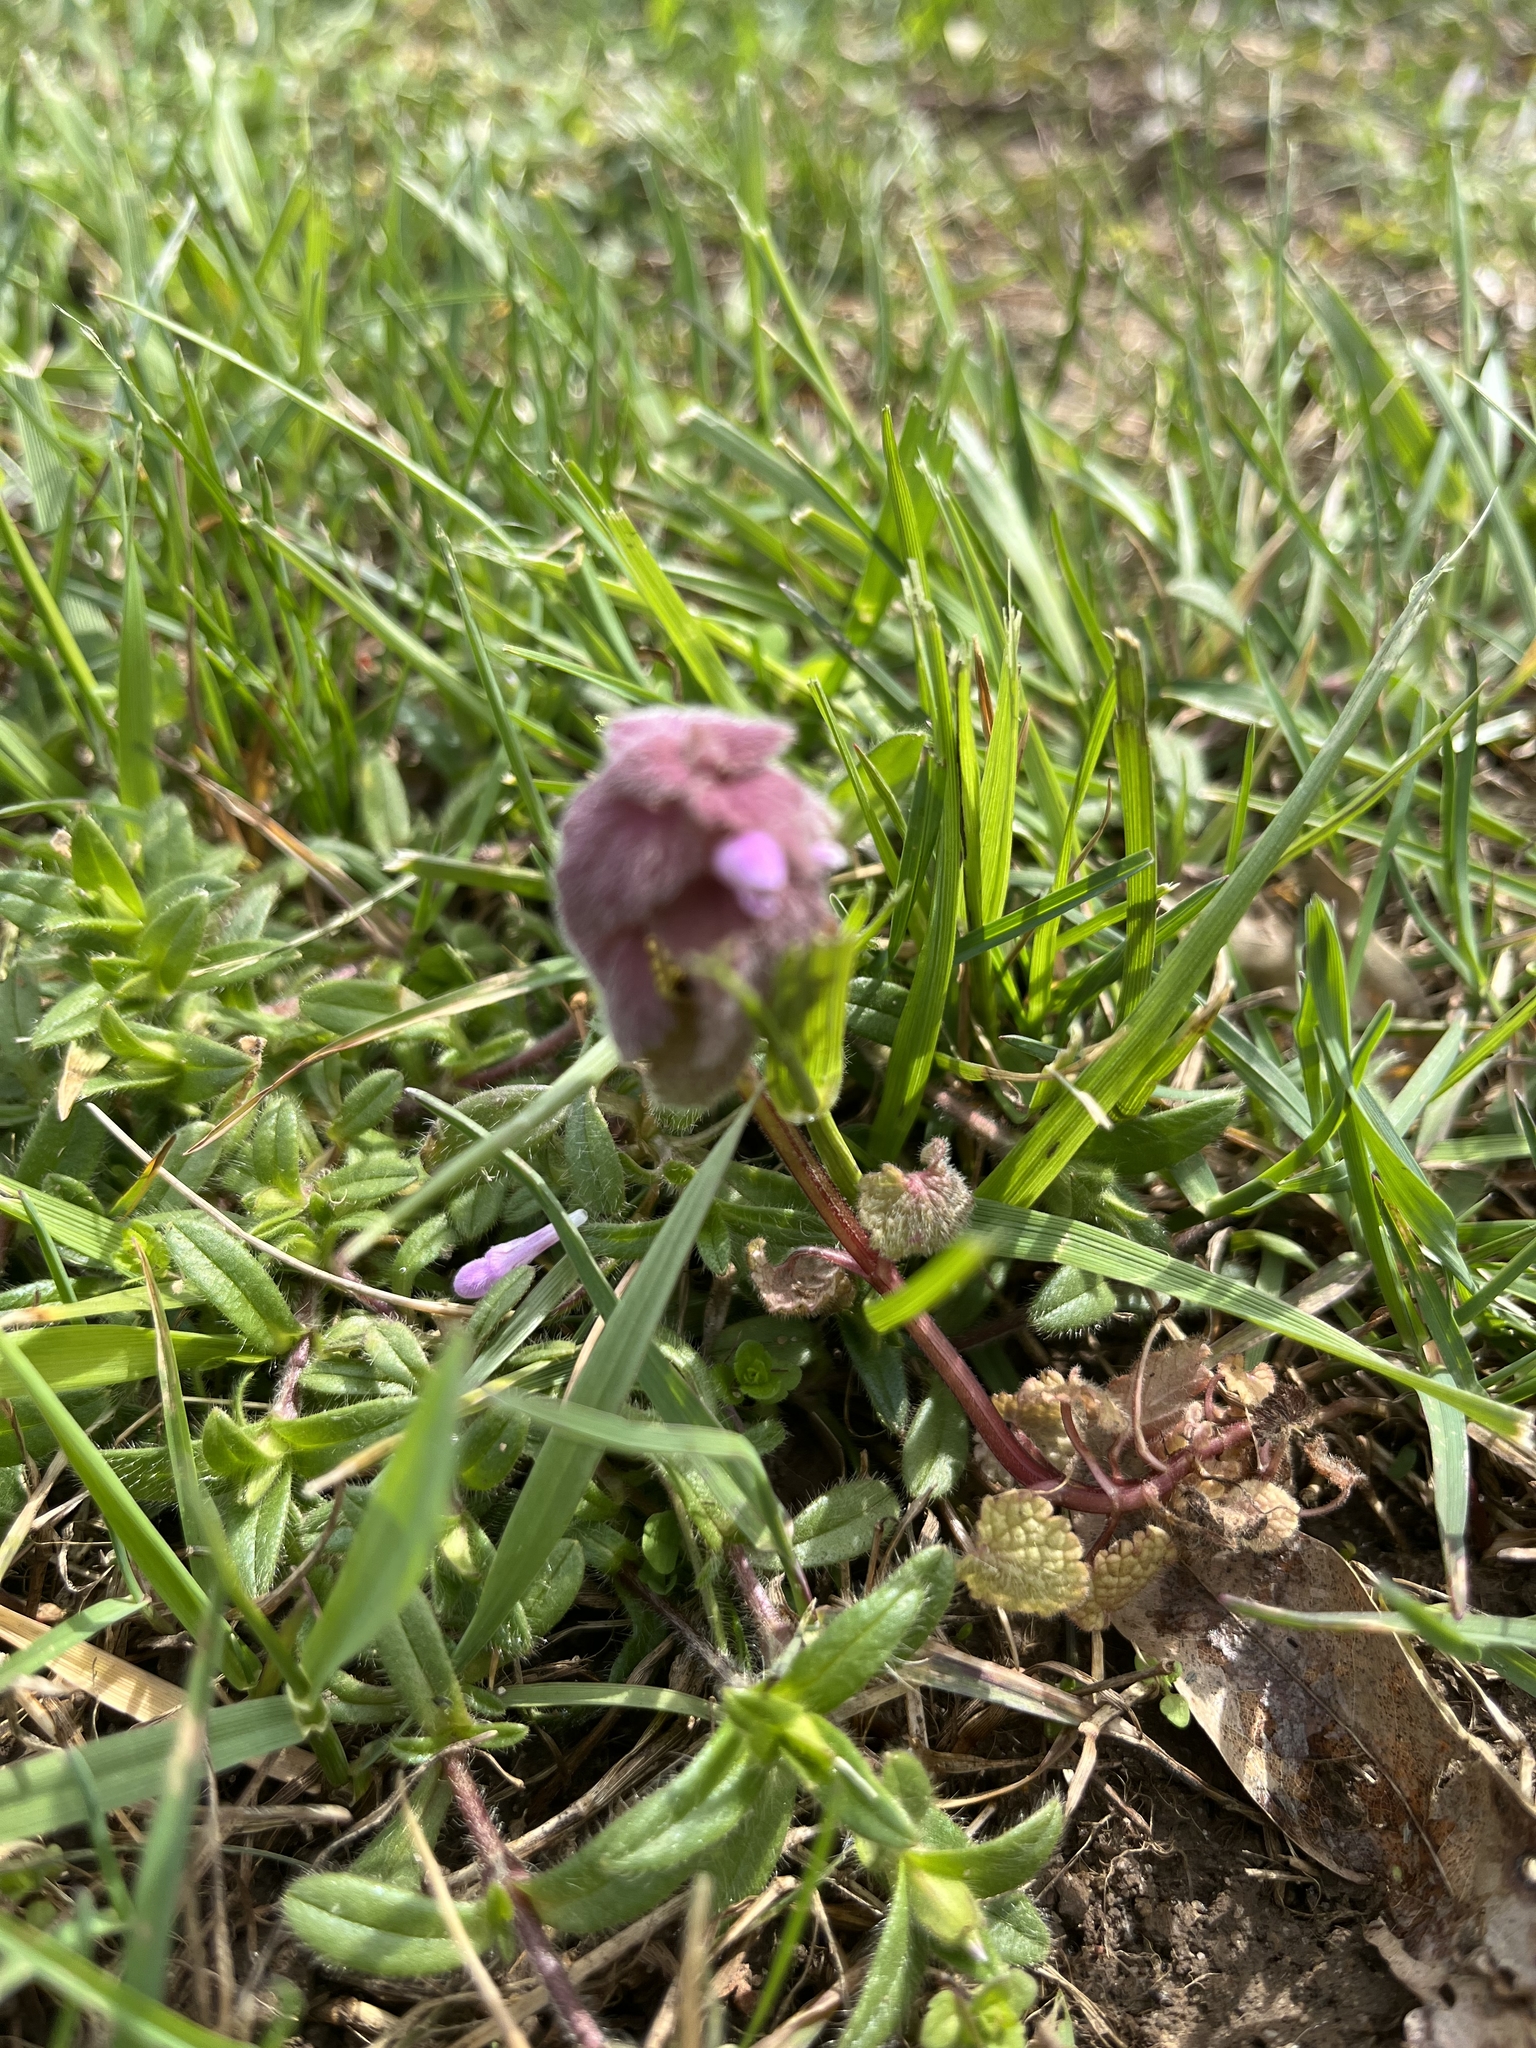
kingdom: Plantae
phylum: Tracheophyta
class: Magnoliopsida
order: Lamiales
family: Lamiaceae
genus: Lamium
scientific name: Lamium purpureum
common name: Red dead-nettle
